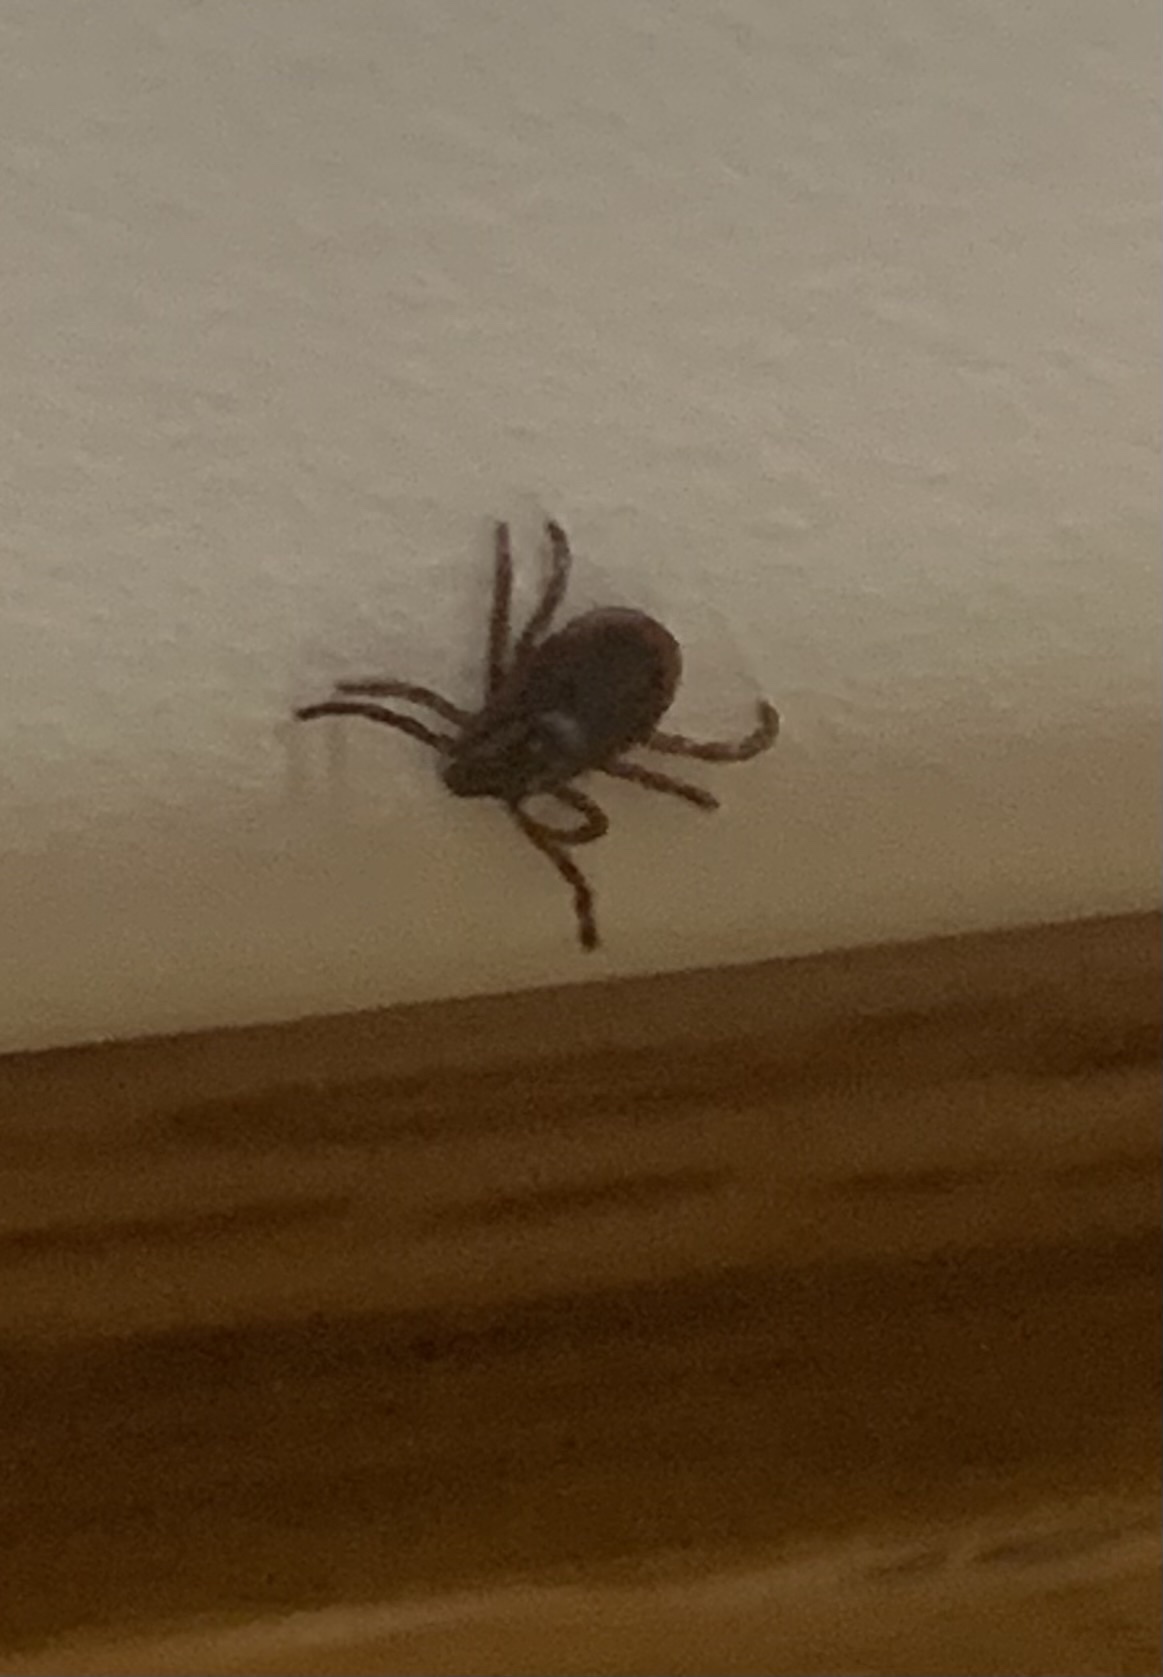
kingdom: Animalia
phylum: Arthropoda
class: Arachnida
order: Ixodida
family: Ixodidae
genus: Dermacentor
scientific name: Dermacentor variabilis
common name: American dog tick
